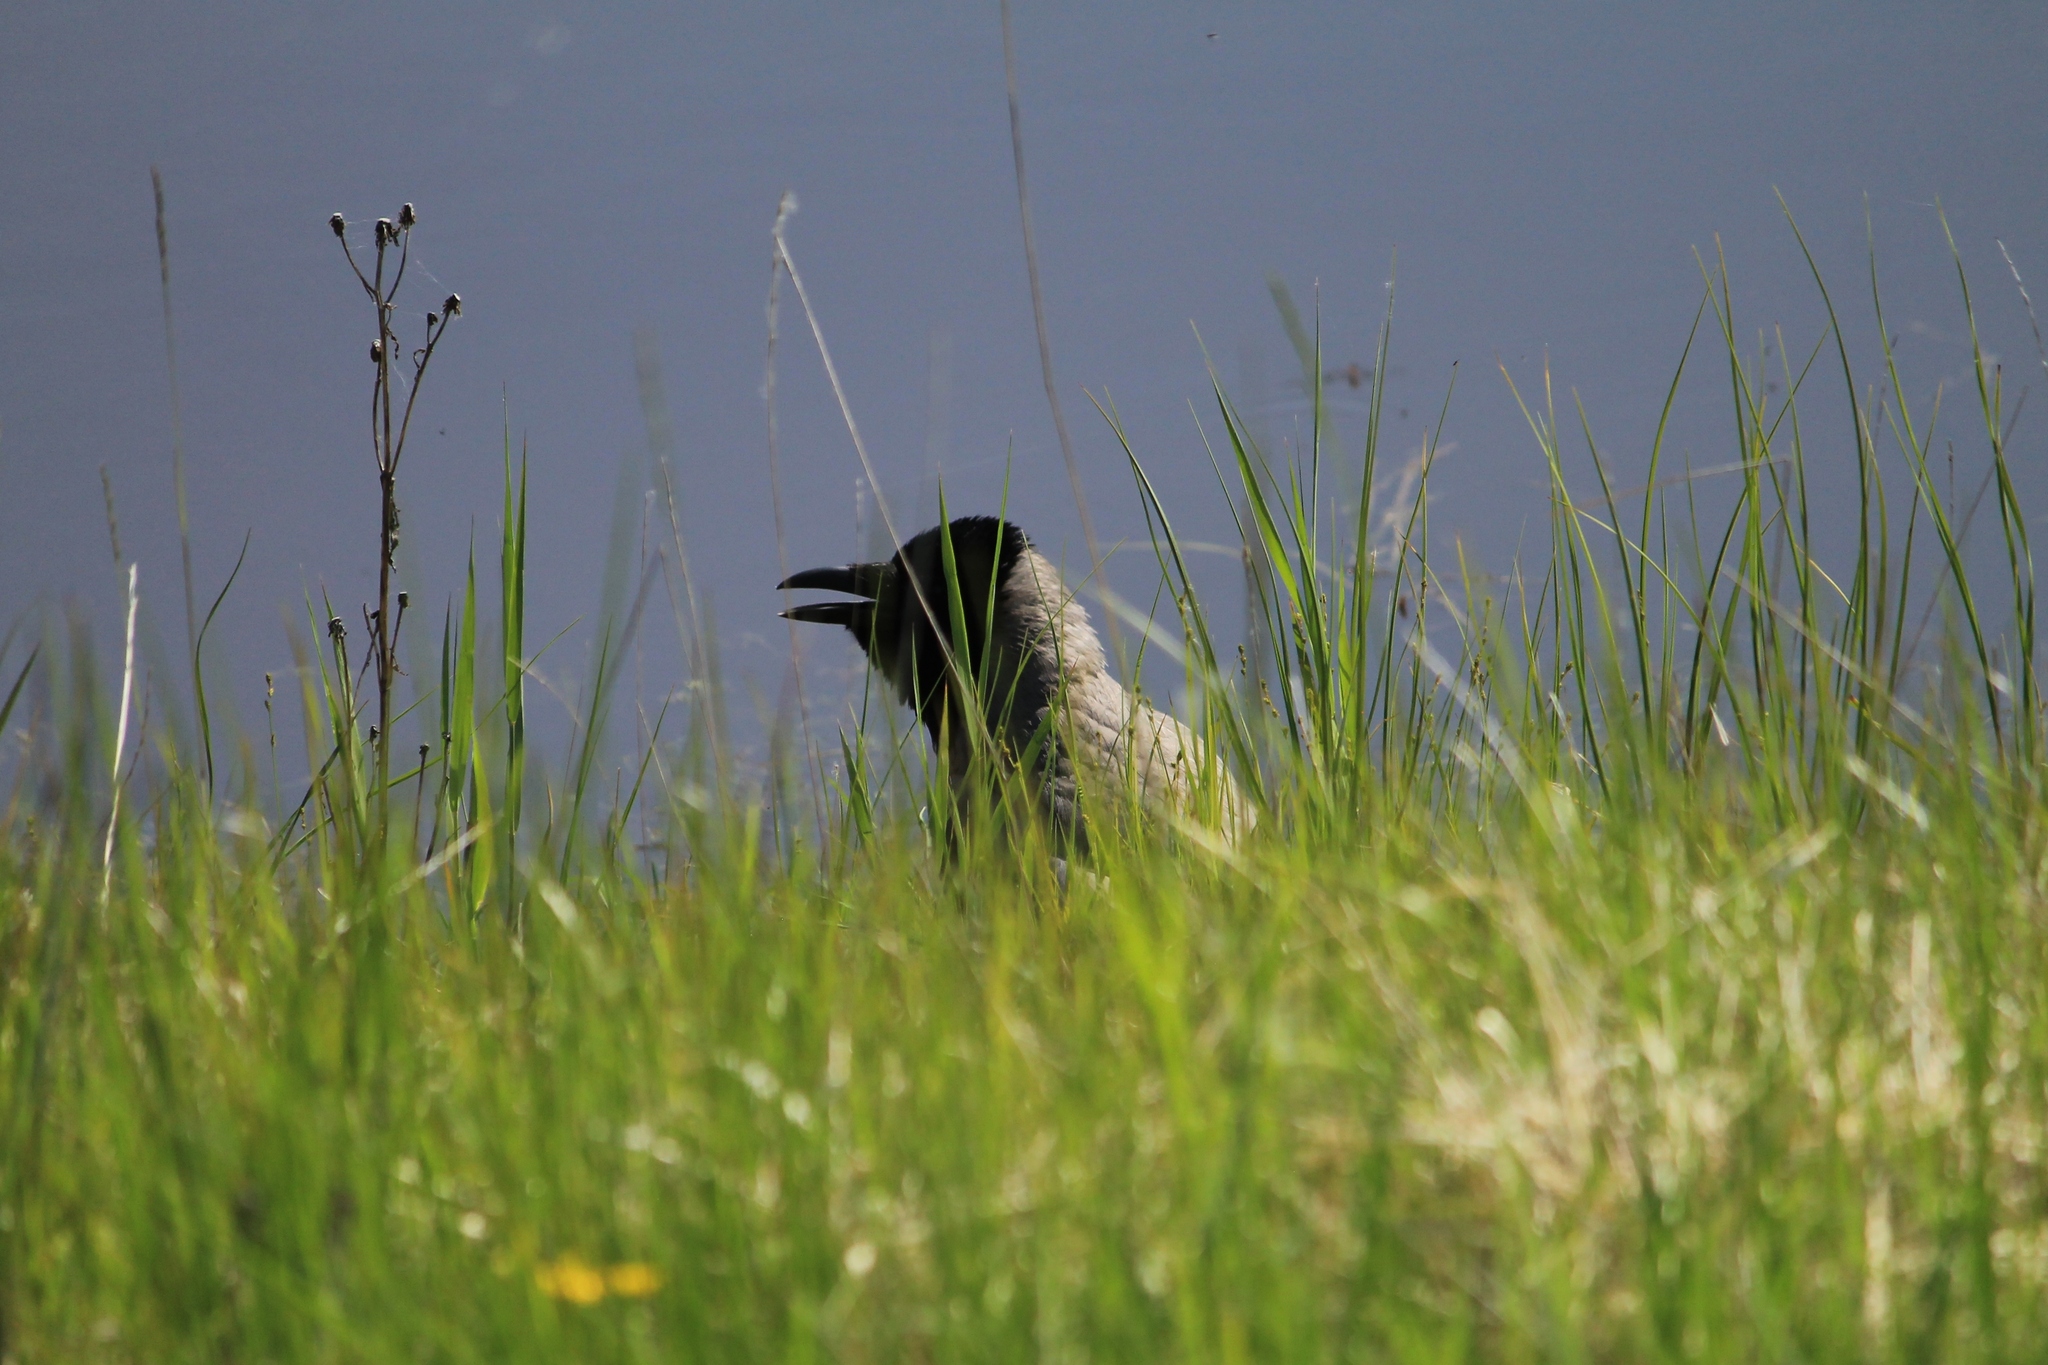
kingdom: Animalia
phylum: Chordata
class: Aves
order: Passeriformes
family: Corvidae
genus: Corvus
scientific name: Corvus cornix
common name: Hooded crow
